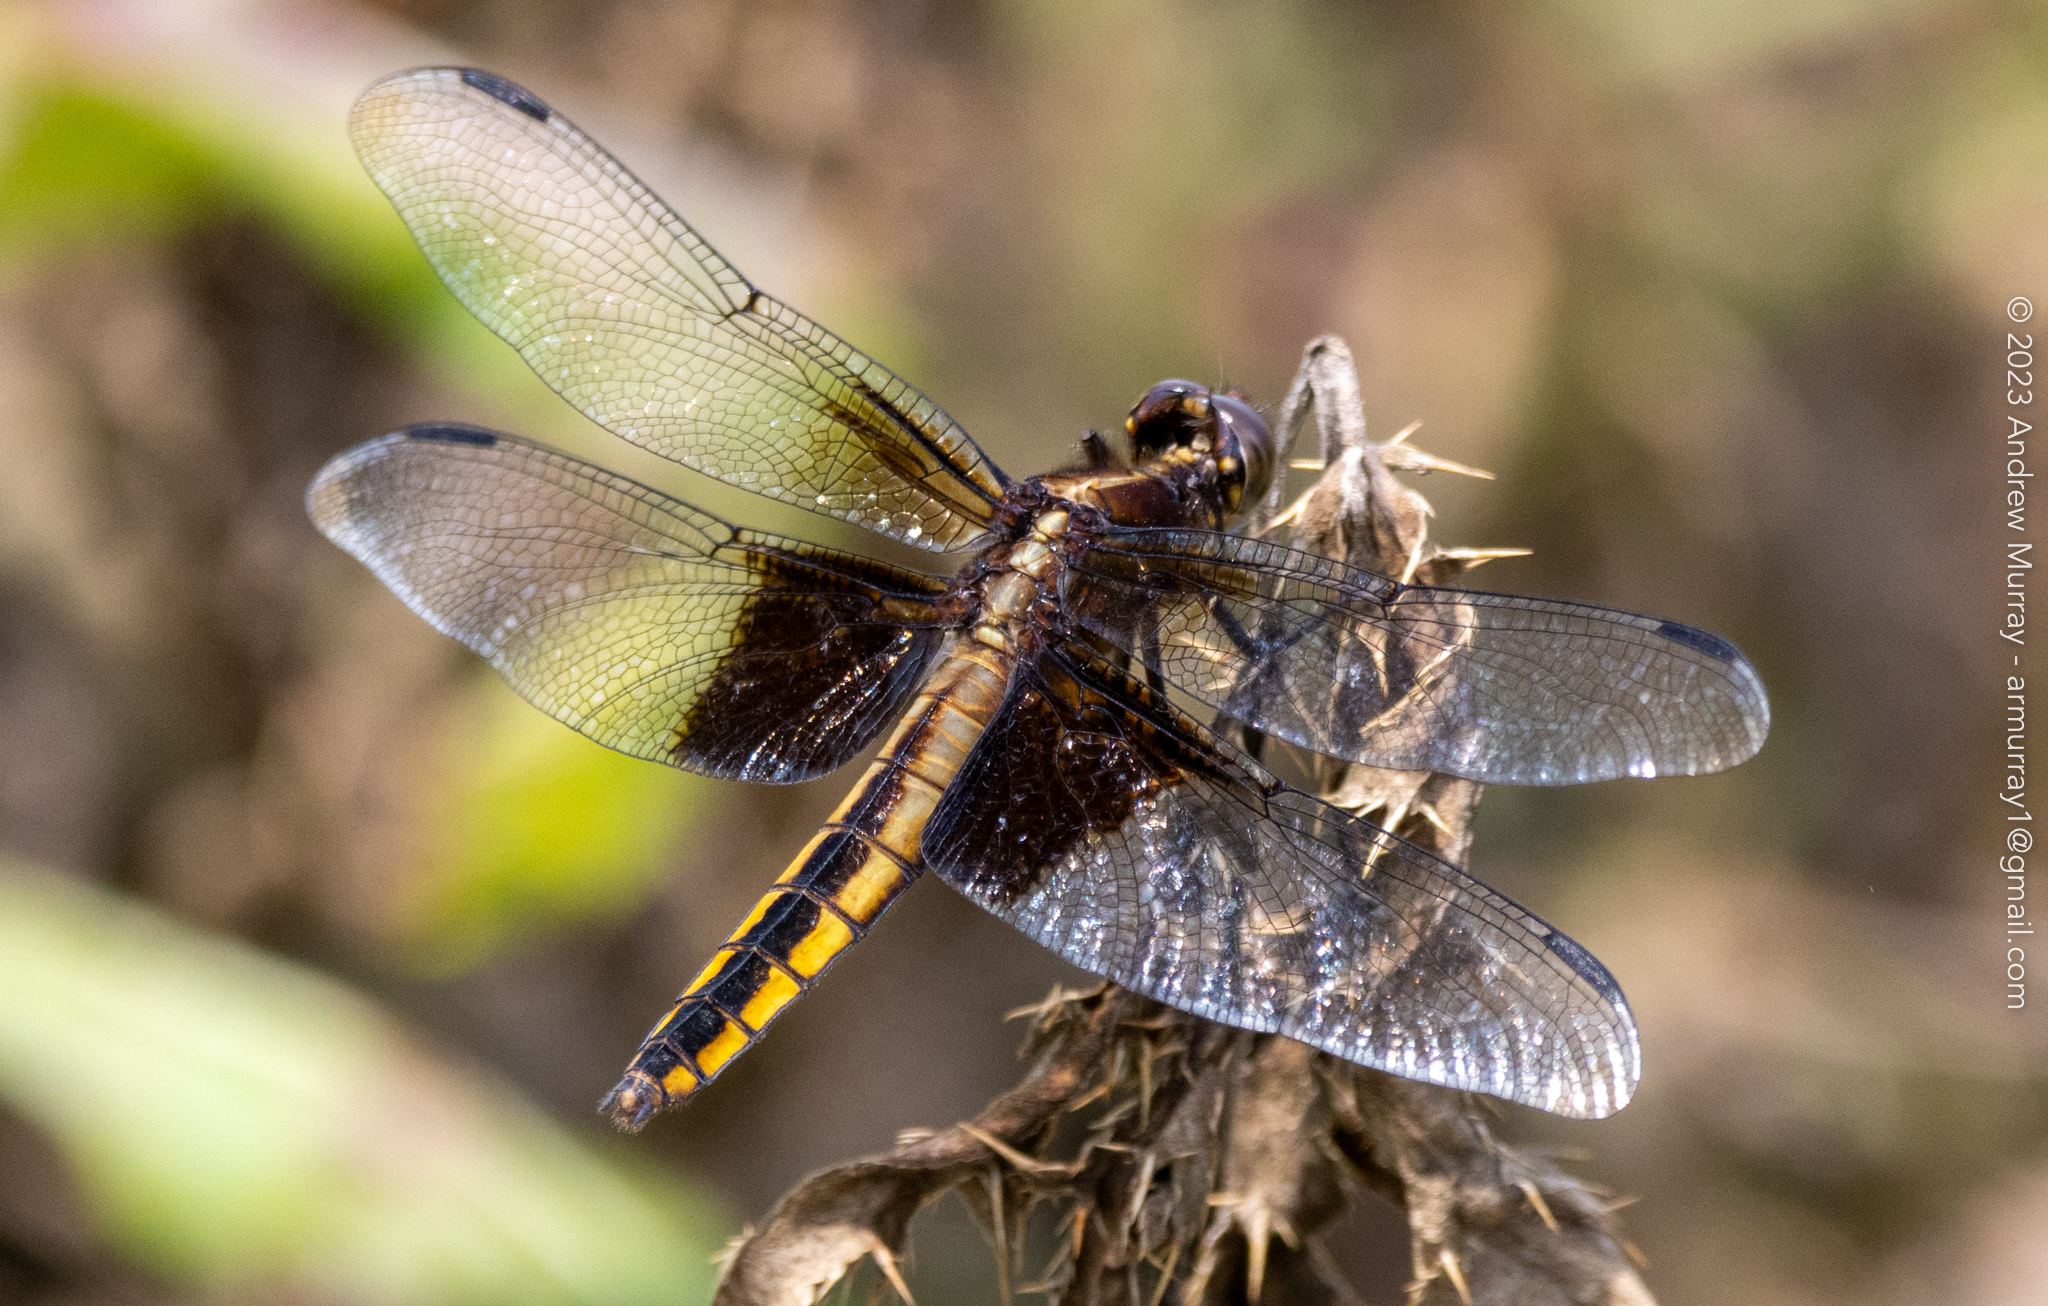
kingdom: Animalia
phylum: Arthropoda
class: Insecta
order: Odonata
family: Libellulidae
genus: Libellula
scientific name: Libellula luctuosa
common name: Widow skimmer
